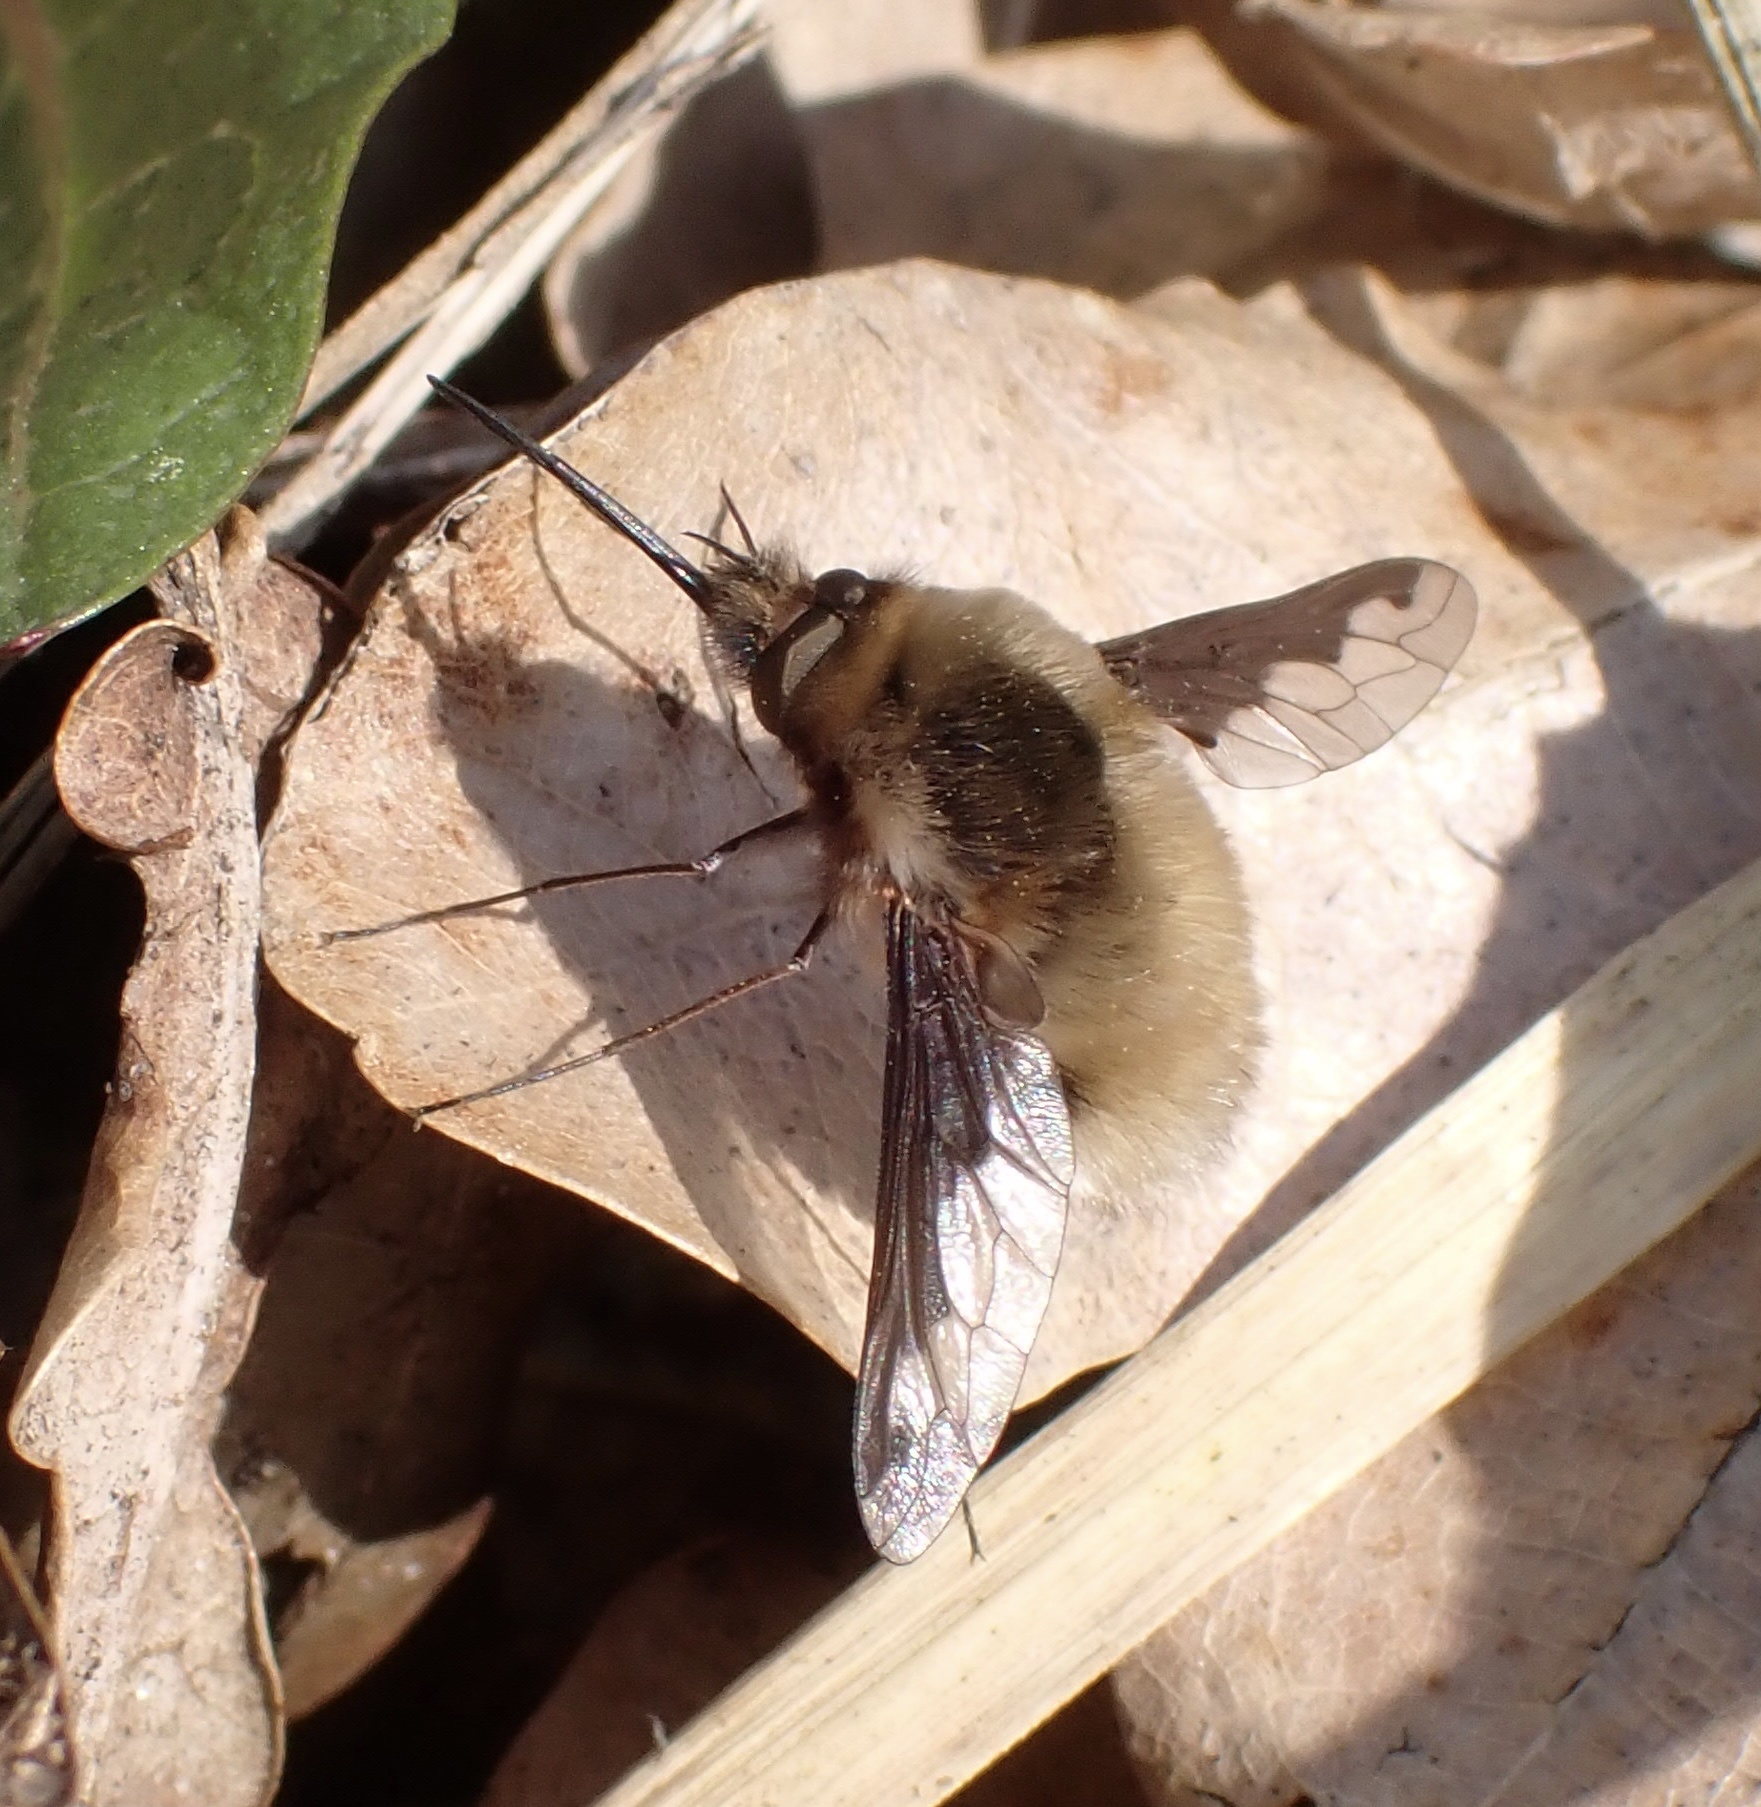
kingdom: Animalia
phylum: Arthropoda
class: Insecta
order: Diptera
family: Bombyliidae
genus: Bombylius
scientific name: Bombylius major
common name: Bee fly
